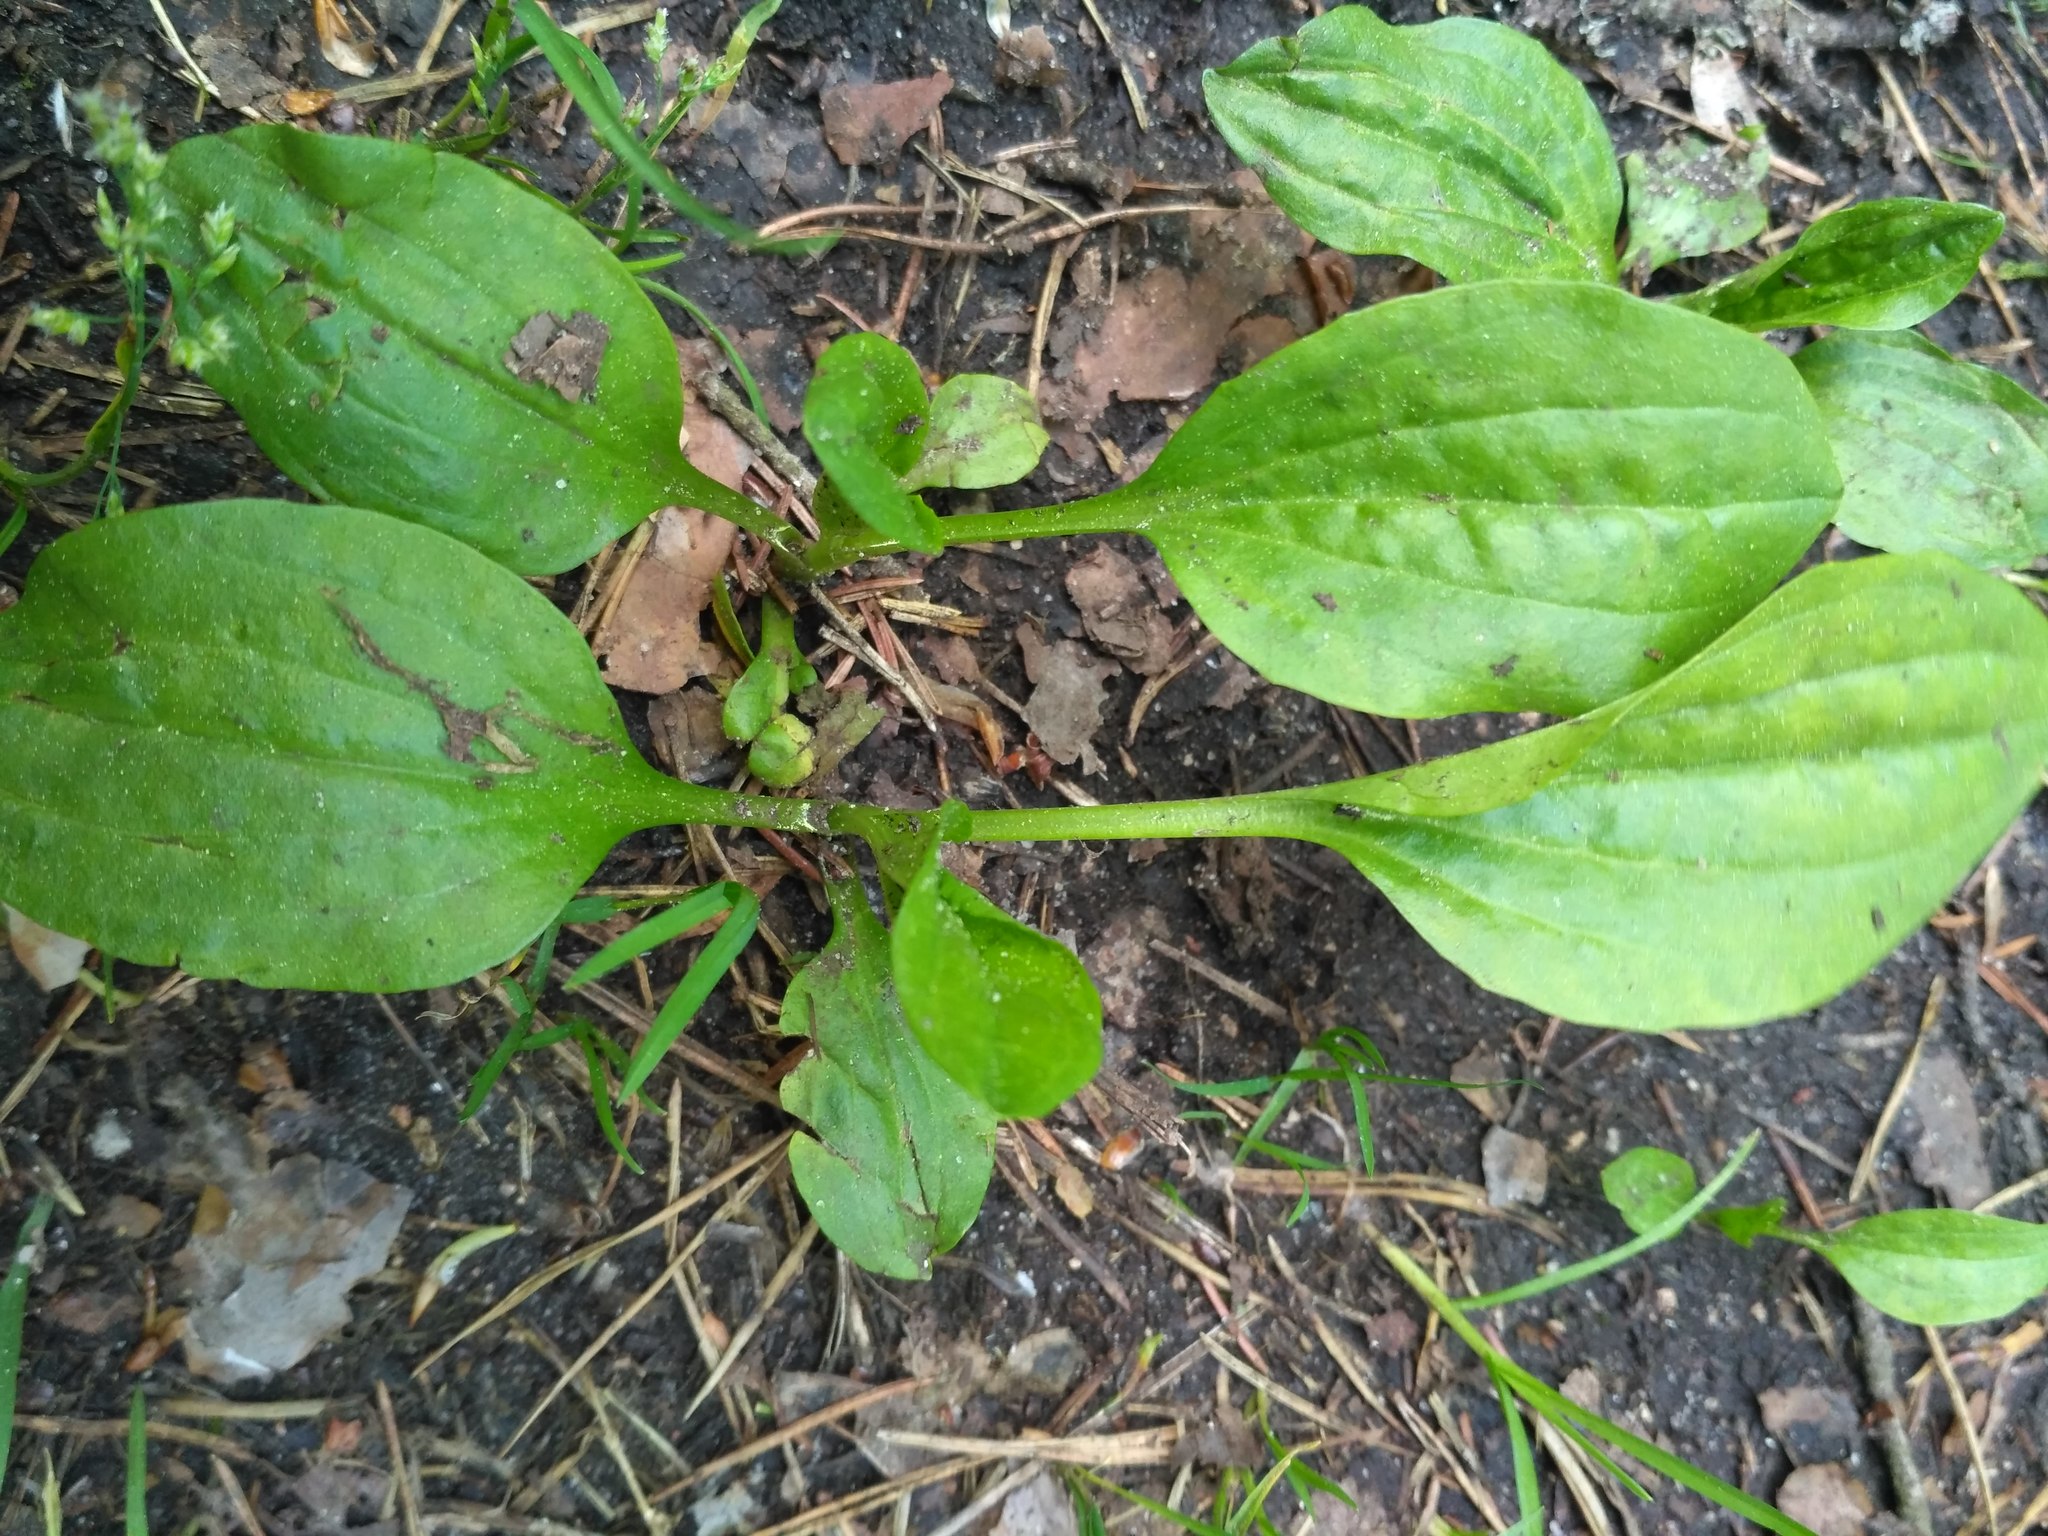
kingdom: Plantae
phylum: Tracheophyta
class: Magnoliopsida
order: Lamiales
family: Plantaginaceae
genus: Plantago
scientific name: Plantago major
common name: Common plantain
